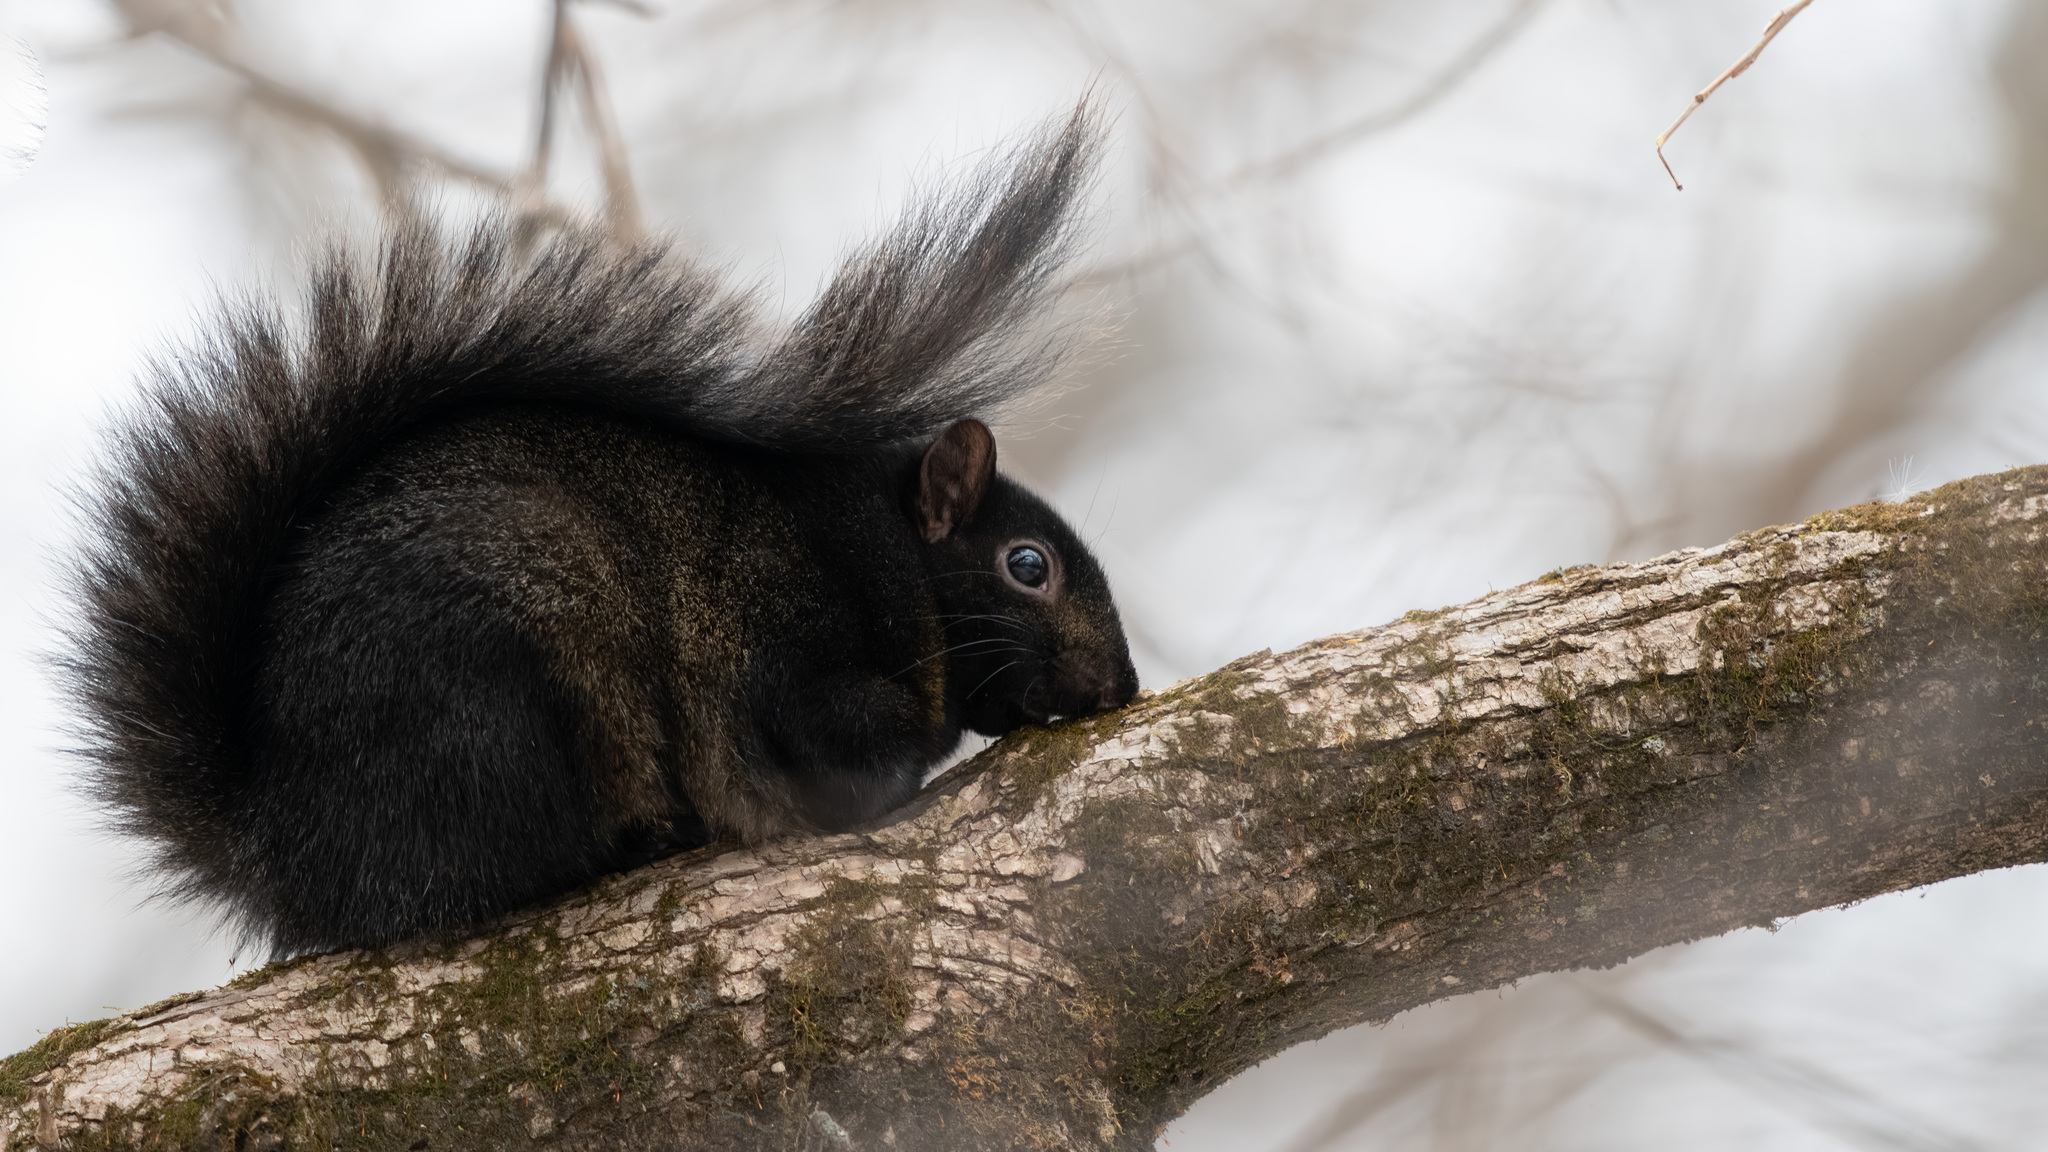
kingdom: Animalia
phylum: Chordata
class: Mammalia
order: Rodentia
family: Sciuridae
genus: Sciurus
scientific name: Sciurus carolinensis
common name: Eastern gray squirrel
